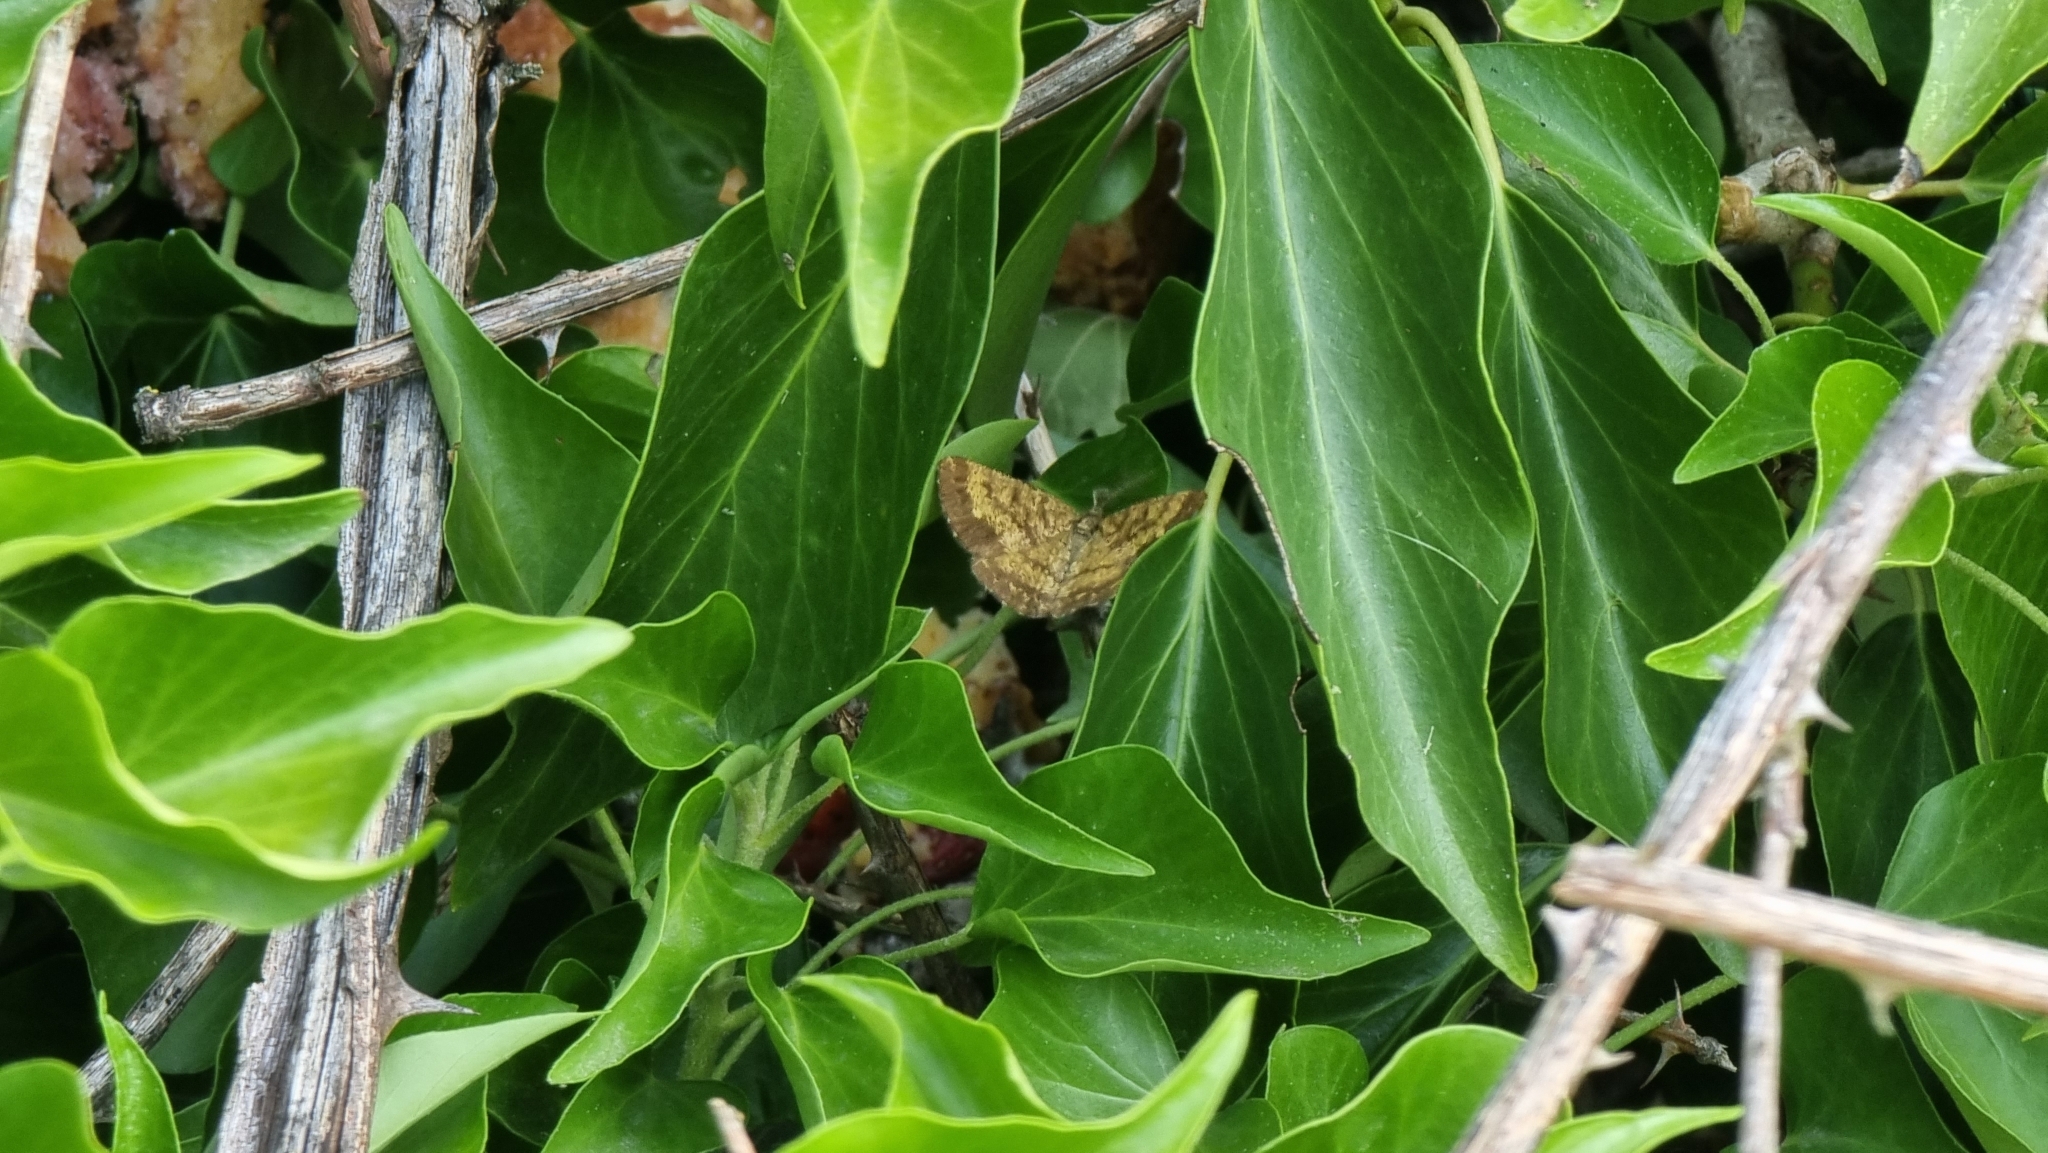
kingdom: Animalia
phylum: Arthropoda
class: Insecta
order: Lepidoptera
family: Geometridae
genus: Ematurga
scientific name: Ematurga atomaria
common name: Common heath
